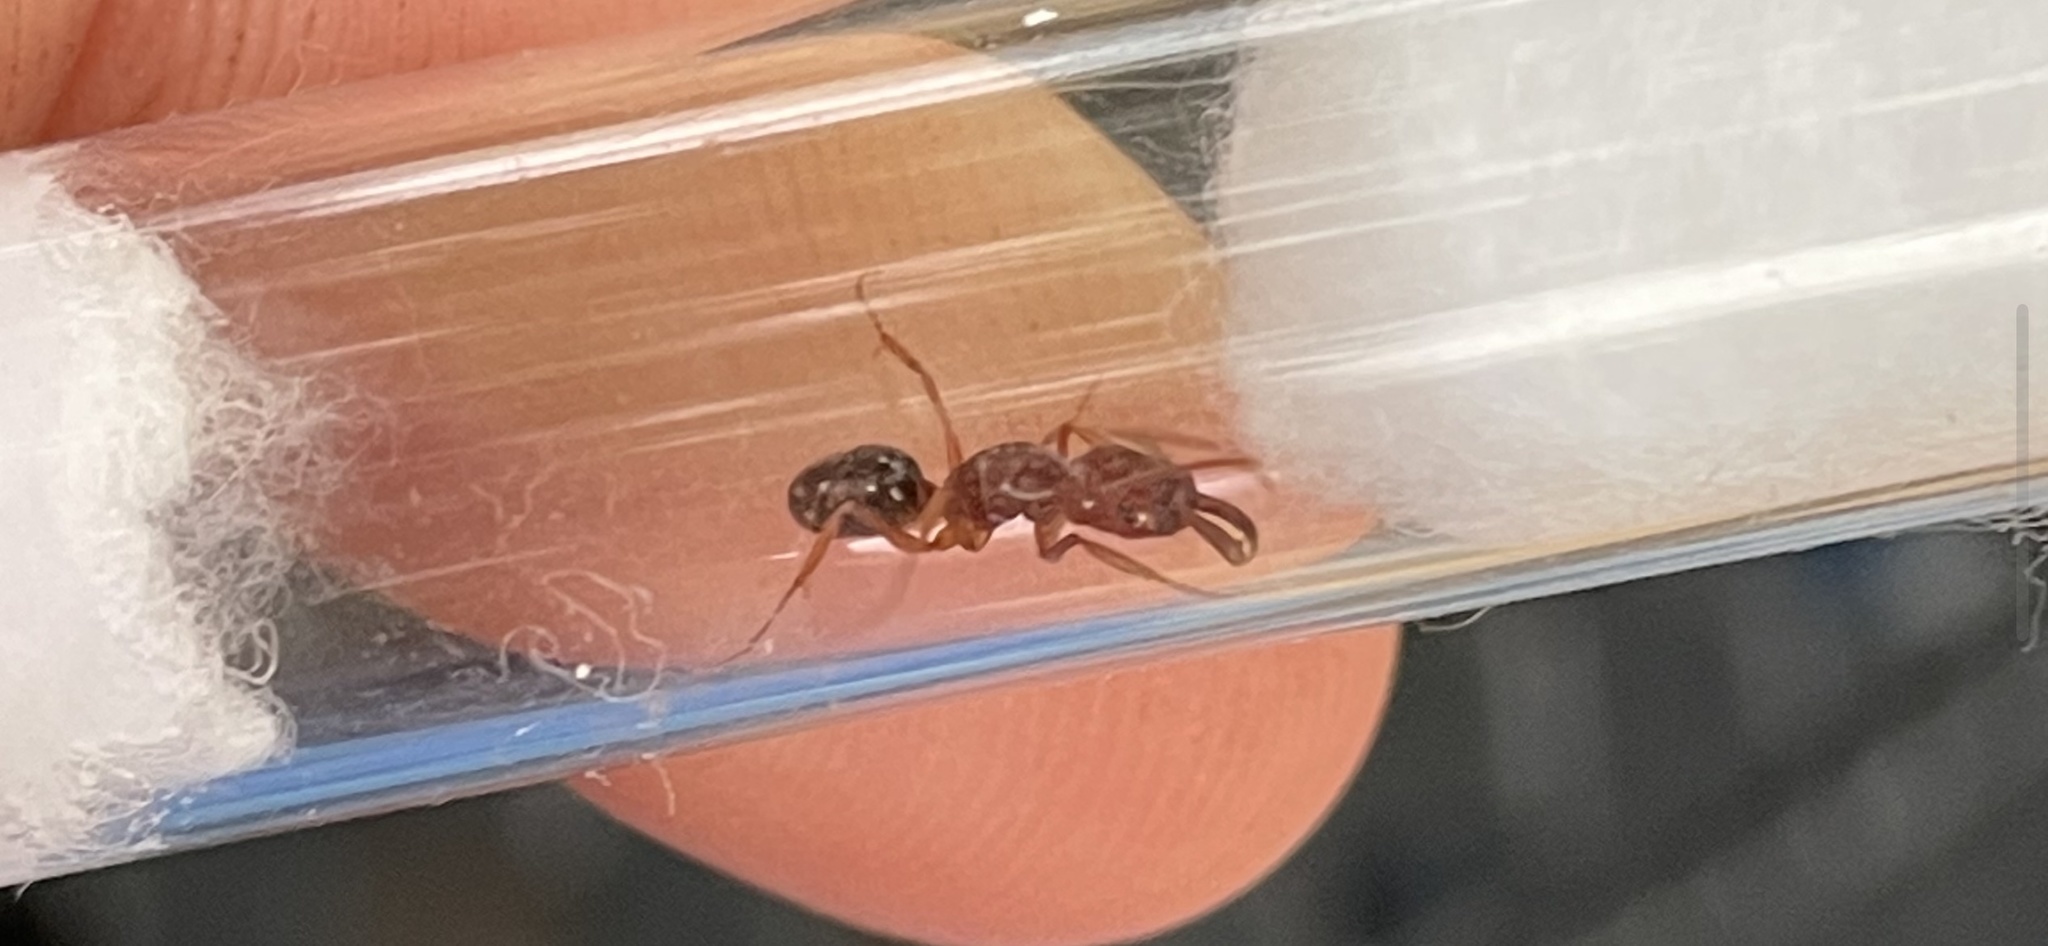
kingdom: Animalia
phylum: Arthropoda
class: Insecta
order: Hymenoptera
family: Formicidae
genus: Odontomachus
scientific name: Odontomachus clarus
